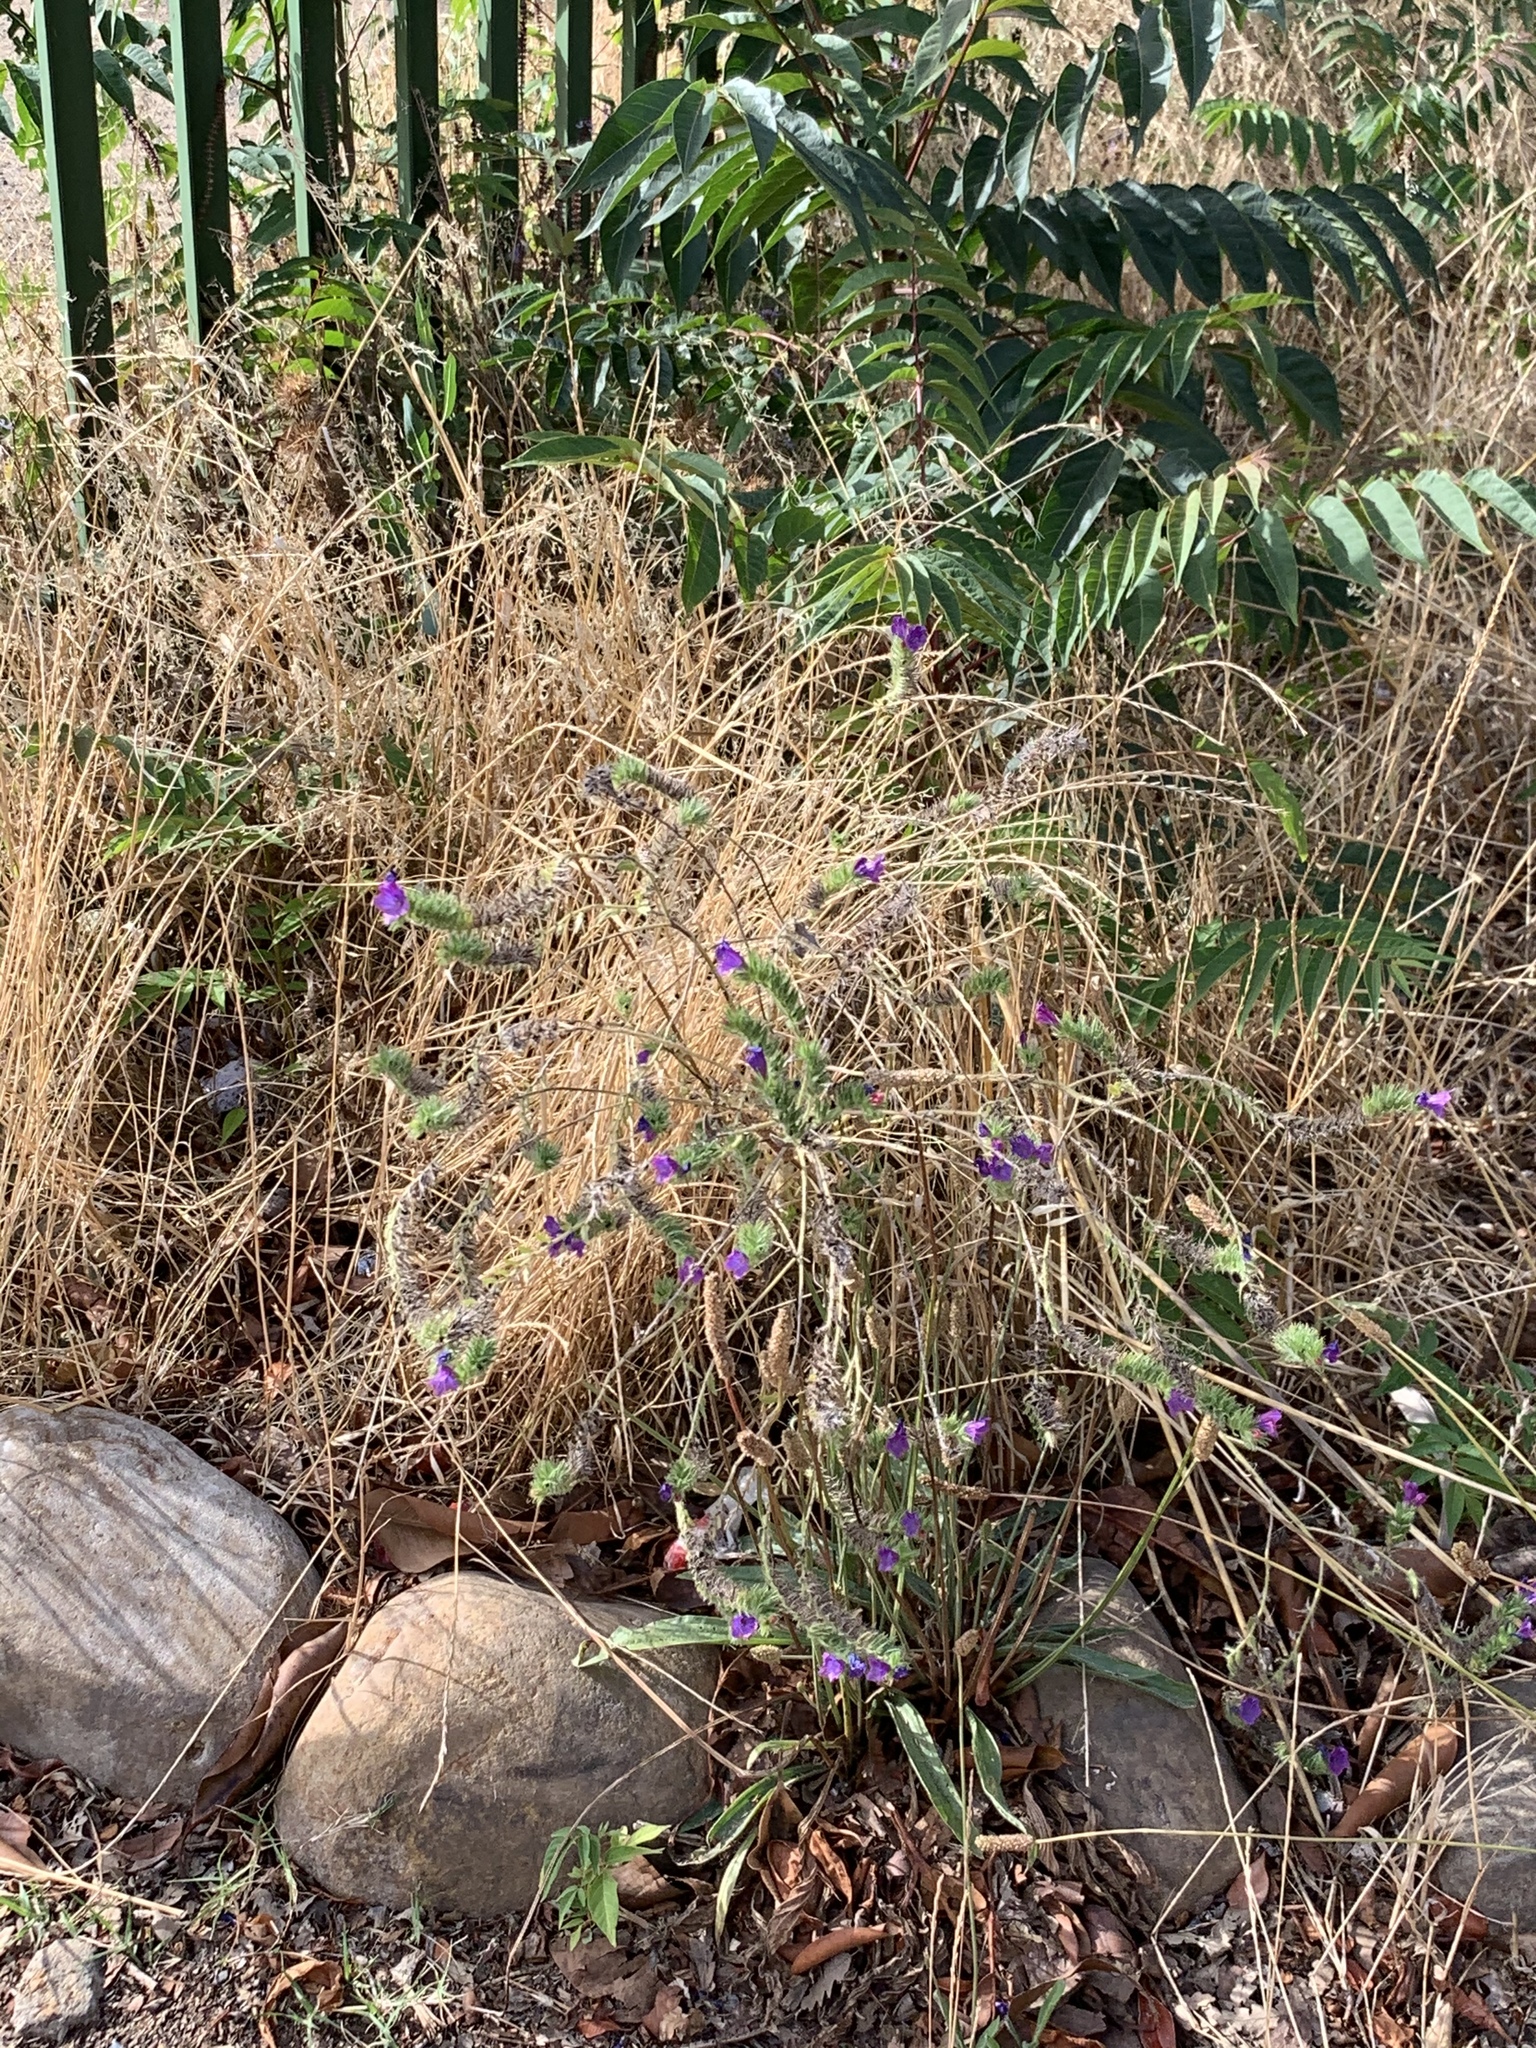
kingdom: Plantae
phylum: Tracheophyta
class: Magnoliopsida
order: Boraginales
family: Boraginaceae
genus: Echium
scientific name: Echium plantagineum
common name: Purple viper's-bugloss
